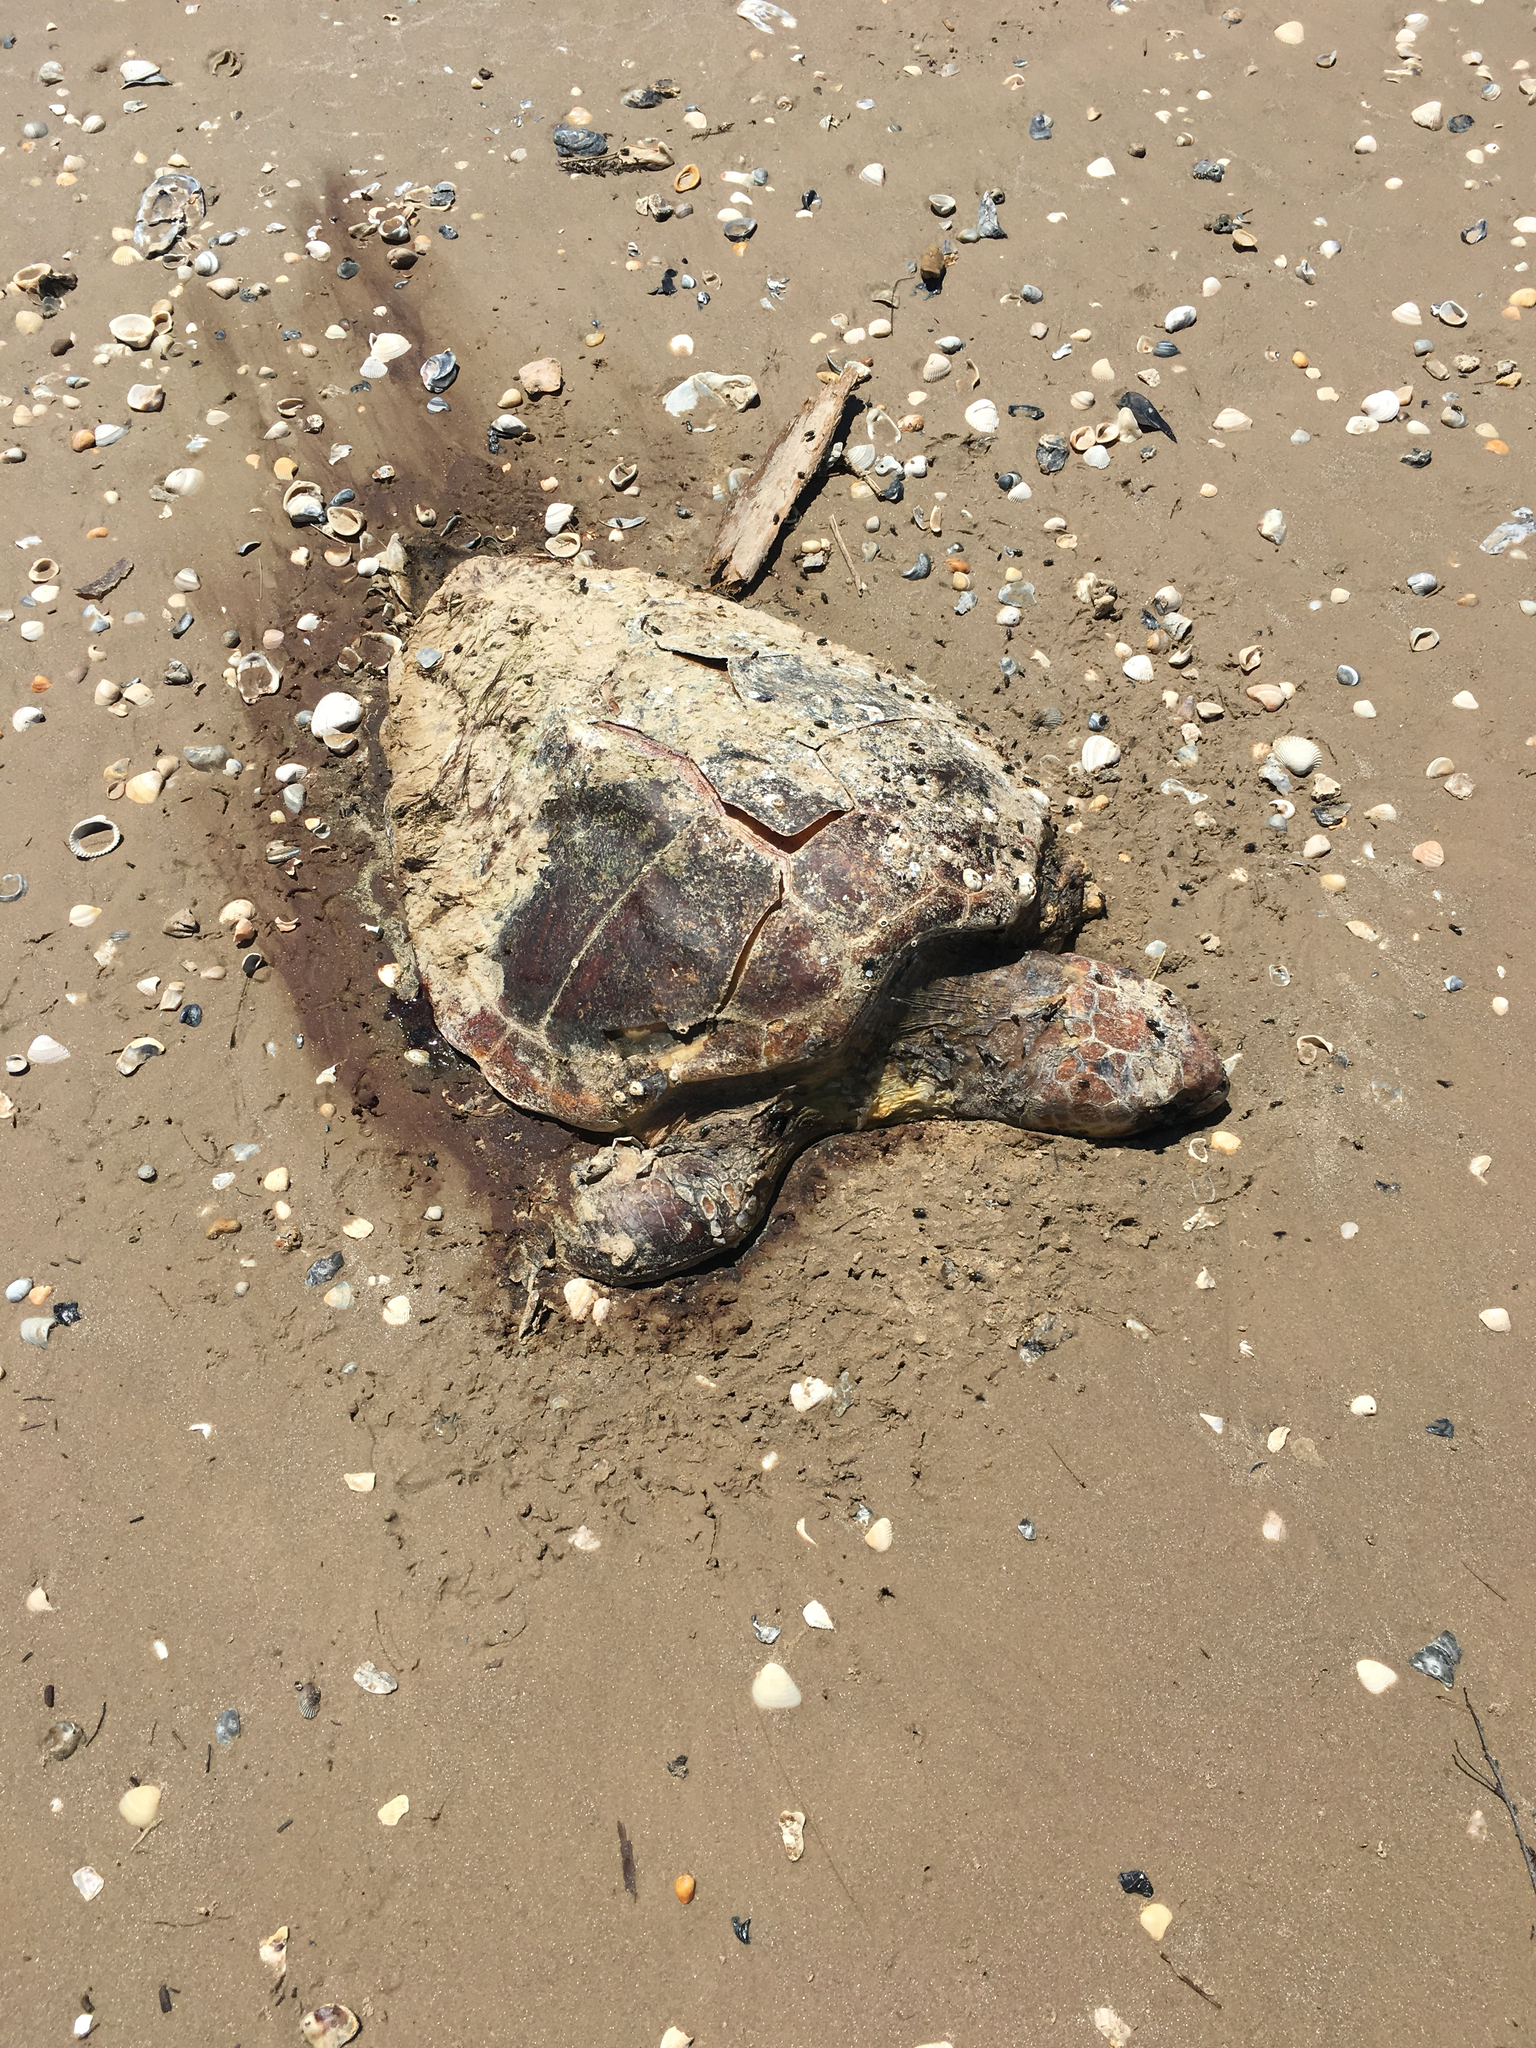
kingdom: Animalia
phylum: Chordata
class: Testudines
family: Cheloniidae
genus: Caretta
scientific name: Caretta caretta
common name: Loggerhead sea turtle
